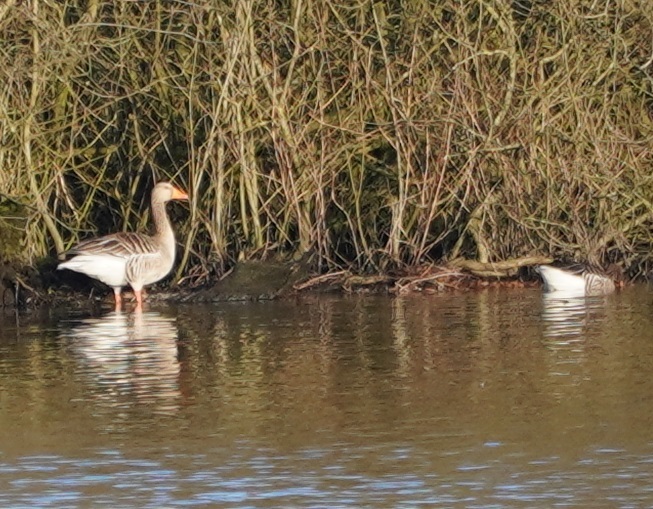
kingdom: Animalia
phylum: Chordata
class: Aves
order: Anseriformes
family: Anatidae
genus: Anser
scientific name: Anser anser
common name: Greylag goose
